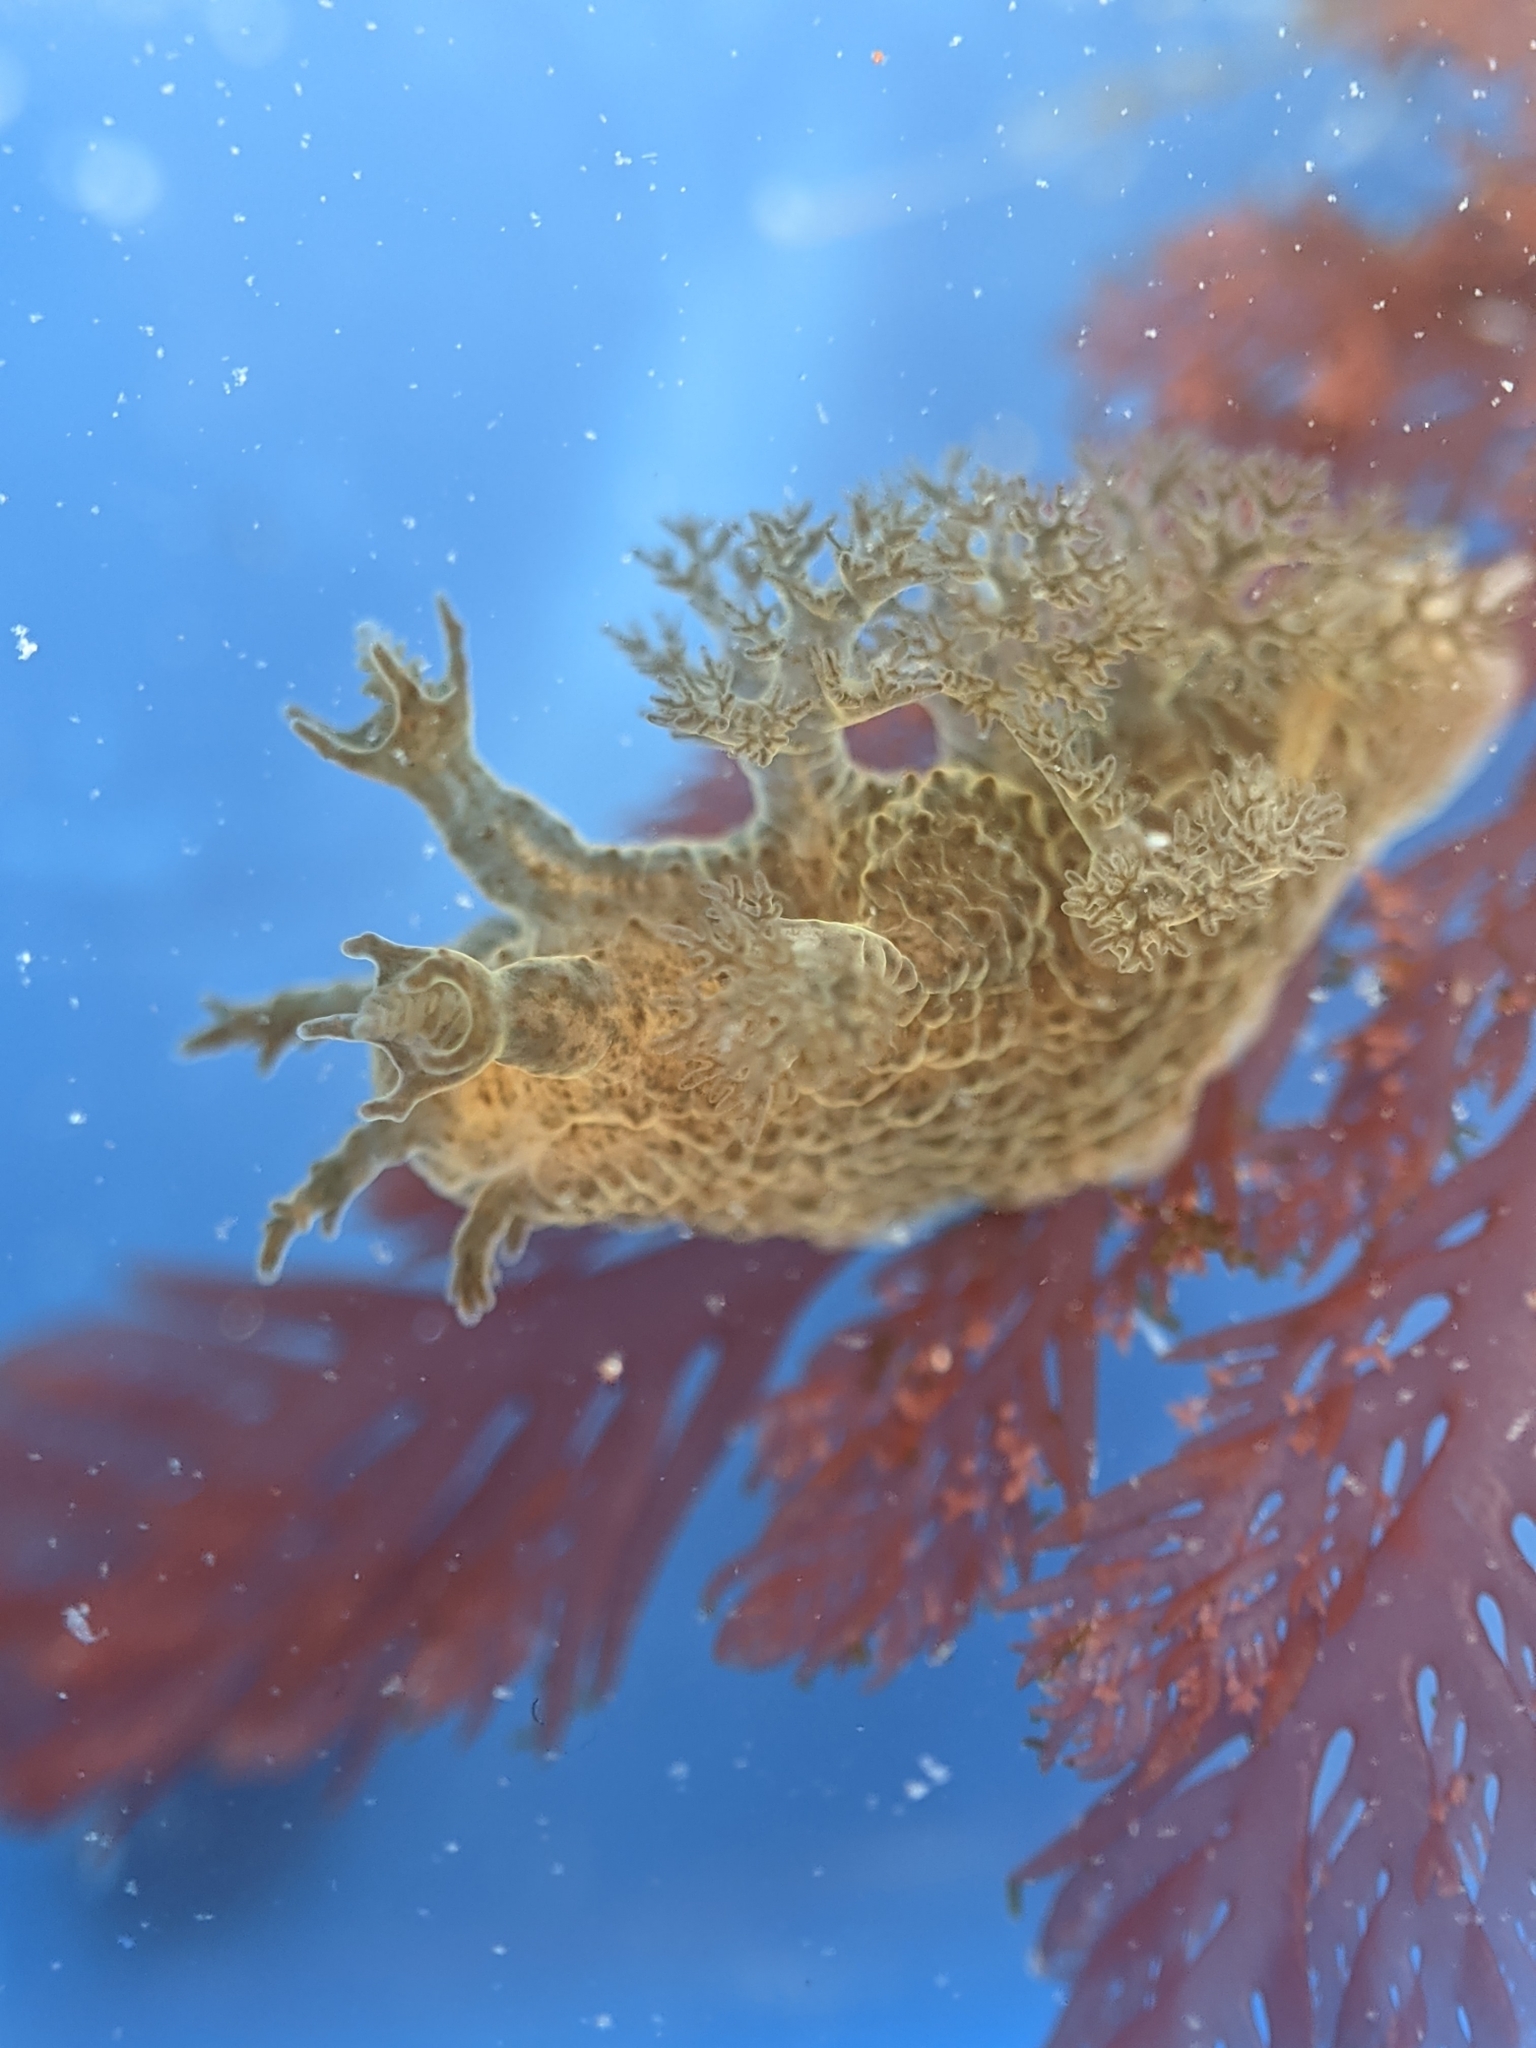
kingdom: Animalia
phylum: Mollusca
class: Gastropoda
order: Nudibranchia
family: Dendronotidae
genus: Dendronotus
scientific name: Dendronotus subramosus
